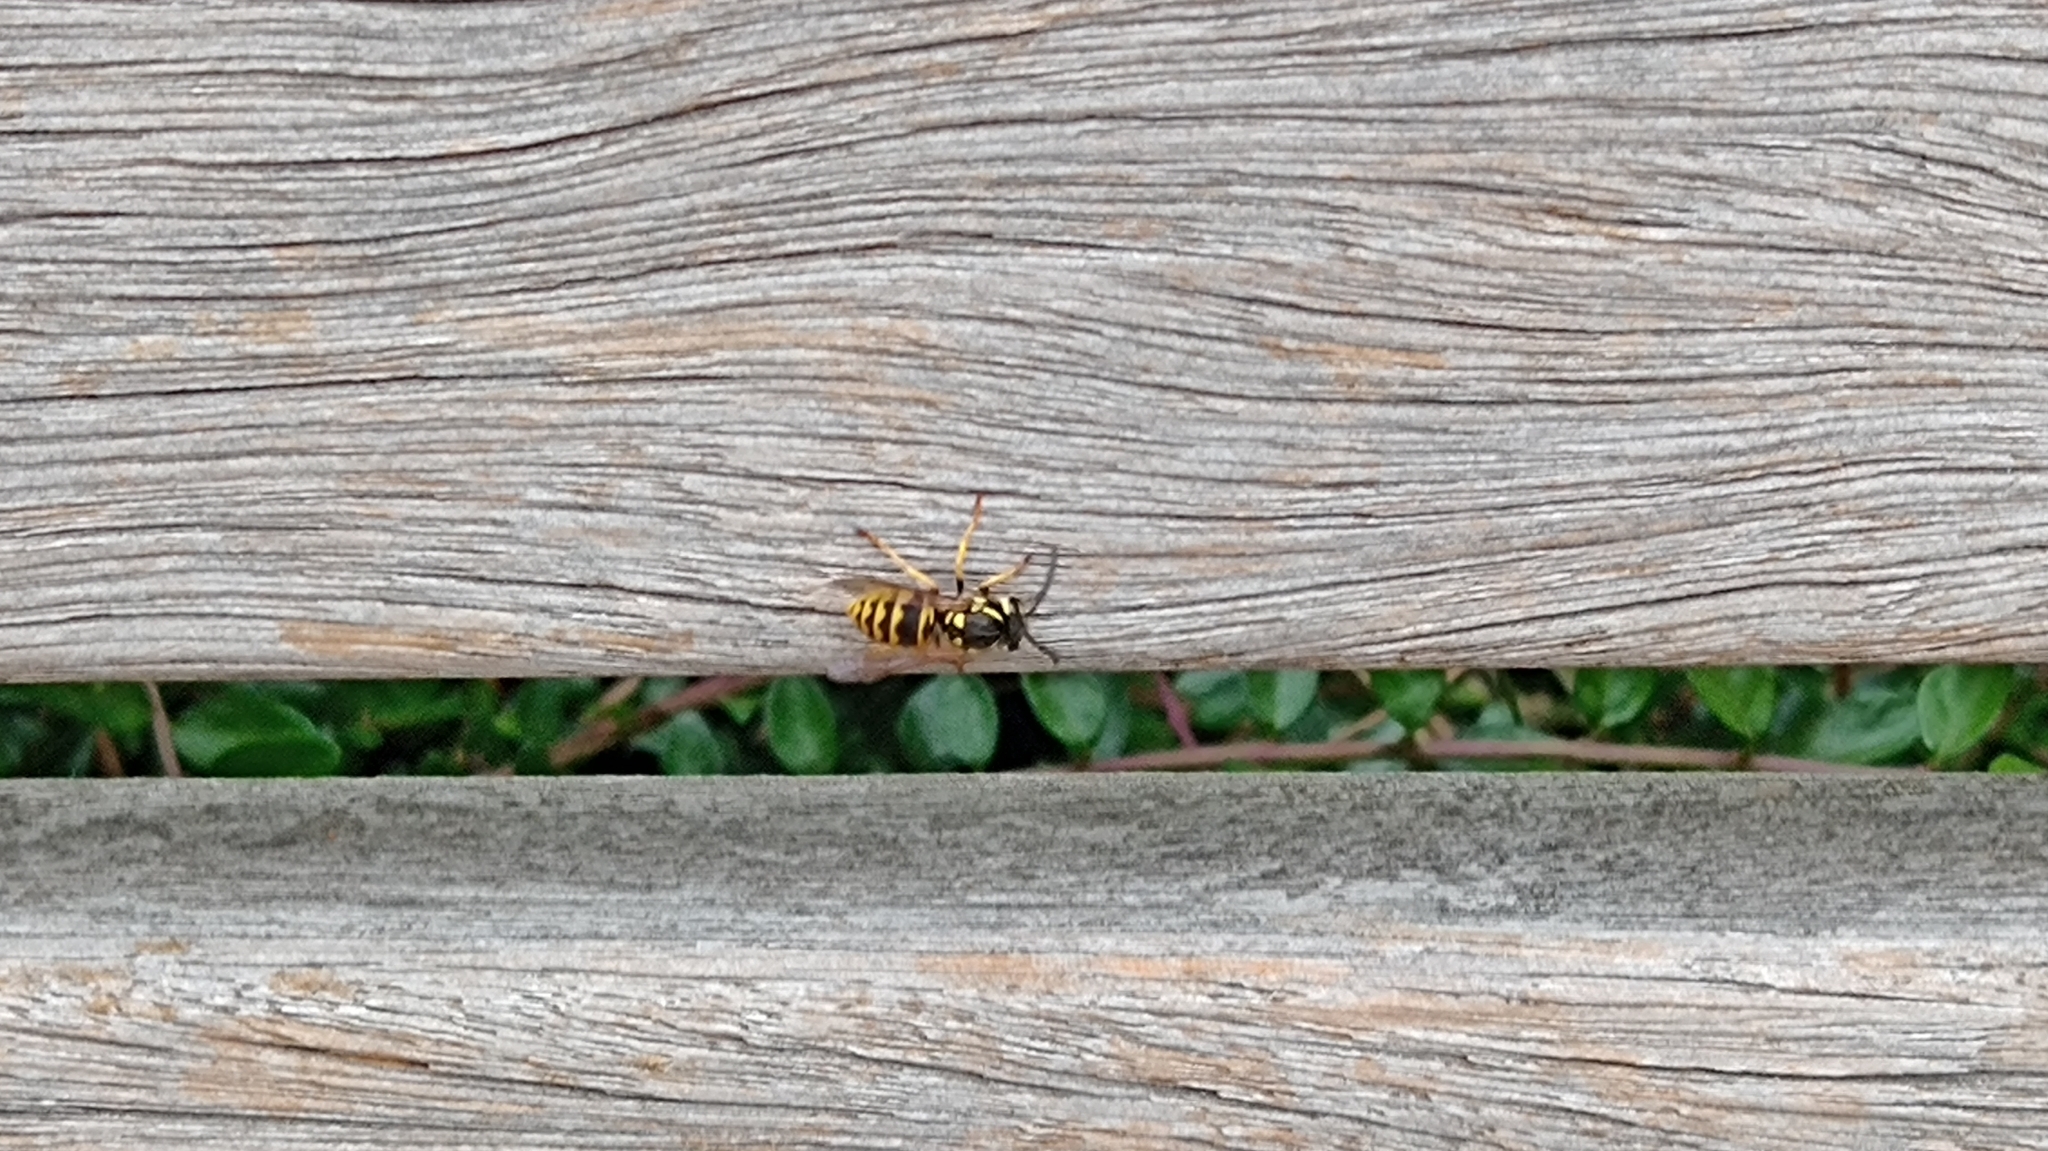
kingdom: Animalia
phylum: Arthropoda
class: Insecta
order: Hymenoptera
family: Vespidae
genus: Vespula
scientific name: Vespula germanica
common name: German wasp
